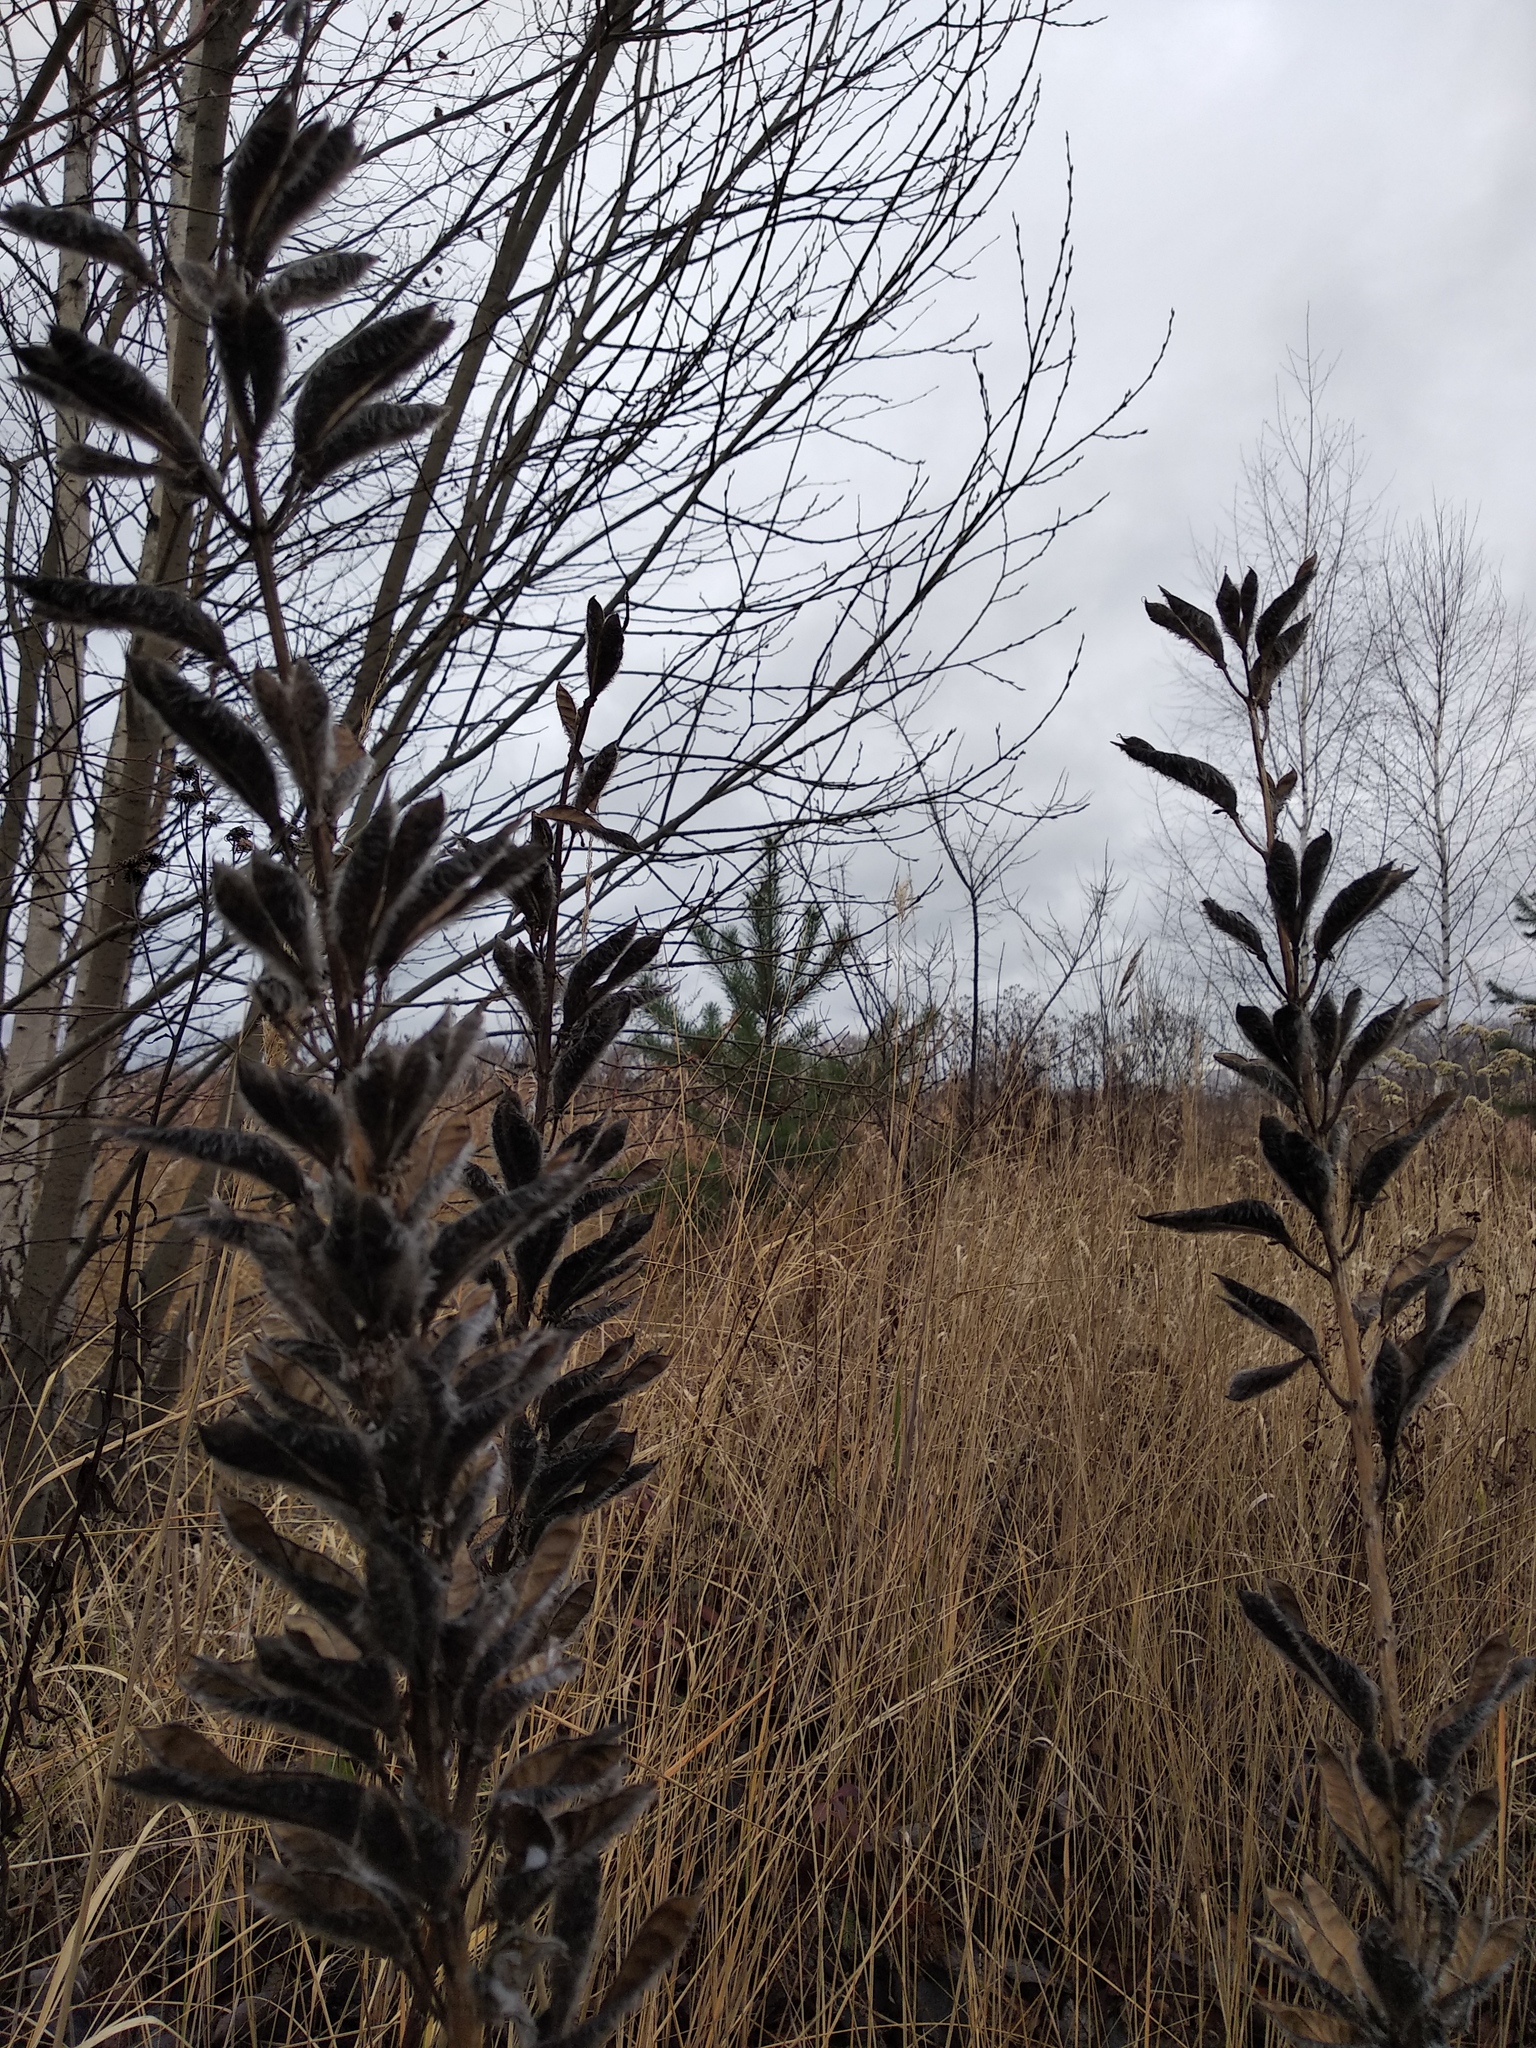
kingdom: Plantae
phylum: Tracheophyta
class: Magnoliopsida
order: Fabales
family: Fabaceae
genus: Lupinus
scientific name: Lupinus polyphyllus
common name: Garden lupin
